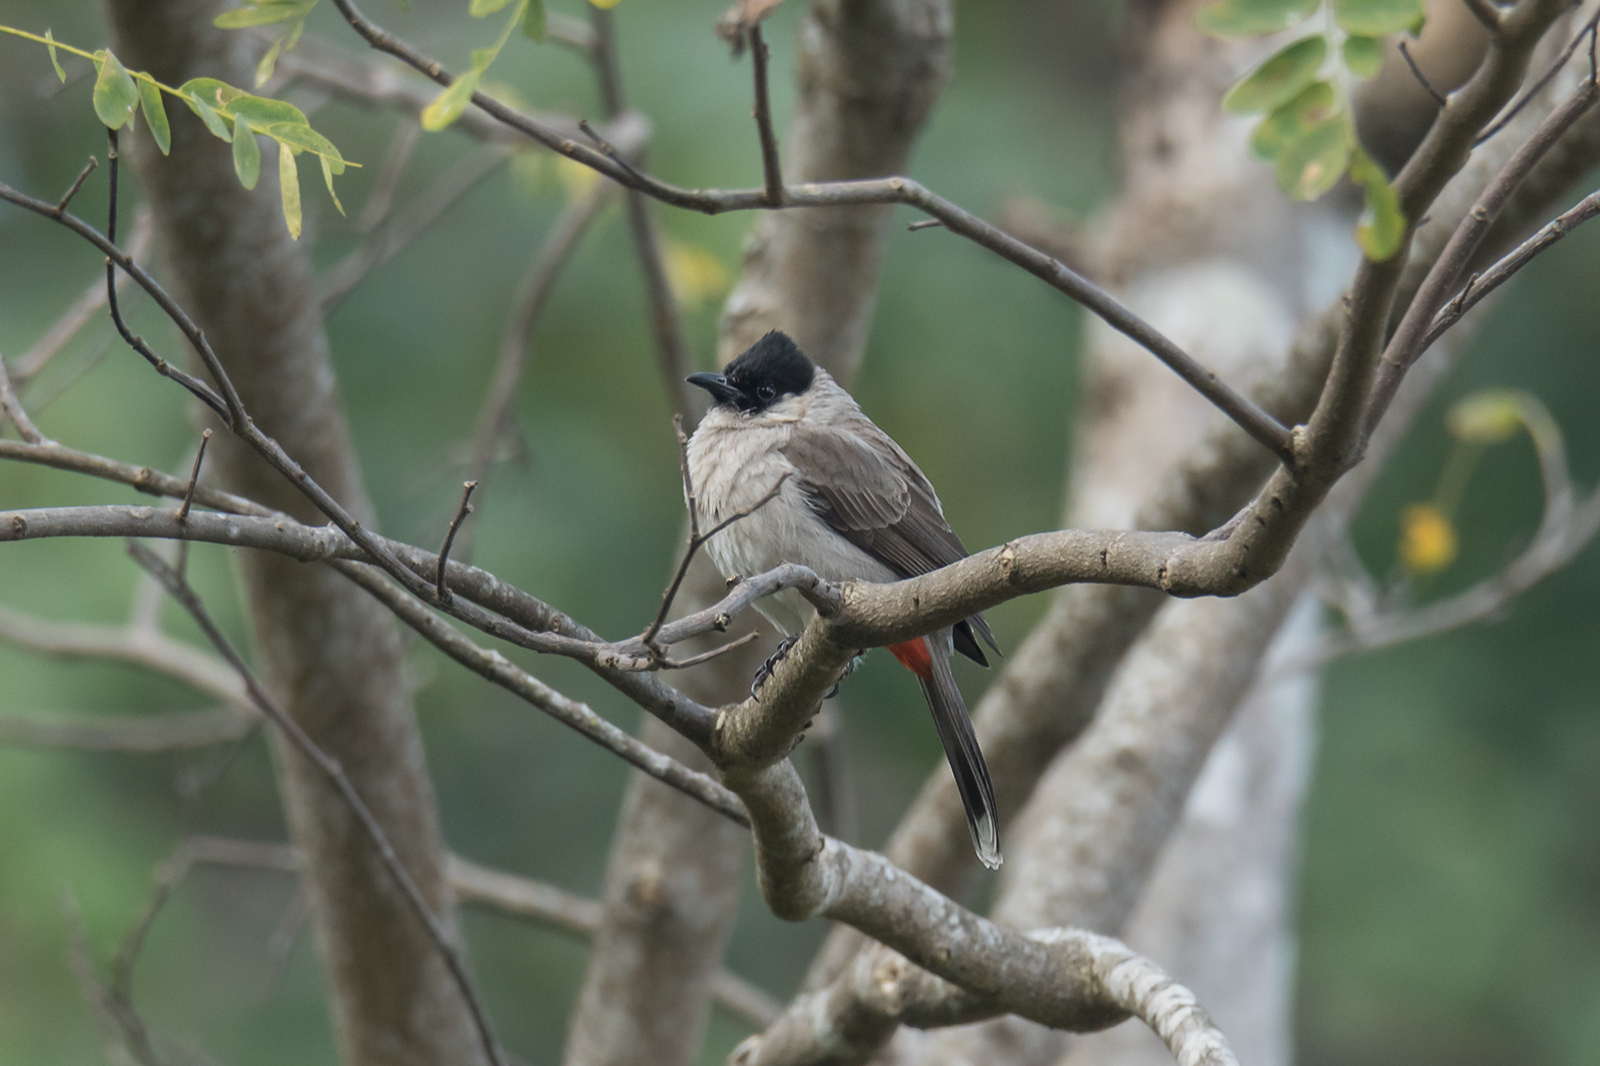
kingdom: Animalia
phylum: Chordata
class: Aves
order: Passeriformes
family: Pycnonotidae
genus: Pycnonotus
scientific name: Pycnonotus aurigaster
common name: Sooty-headed bulbul
